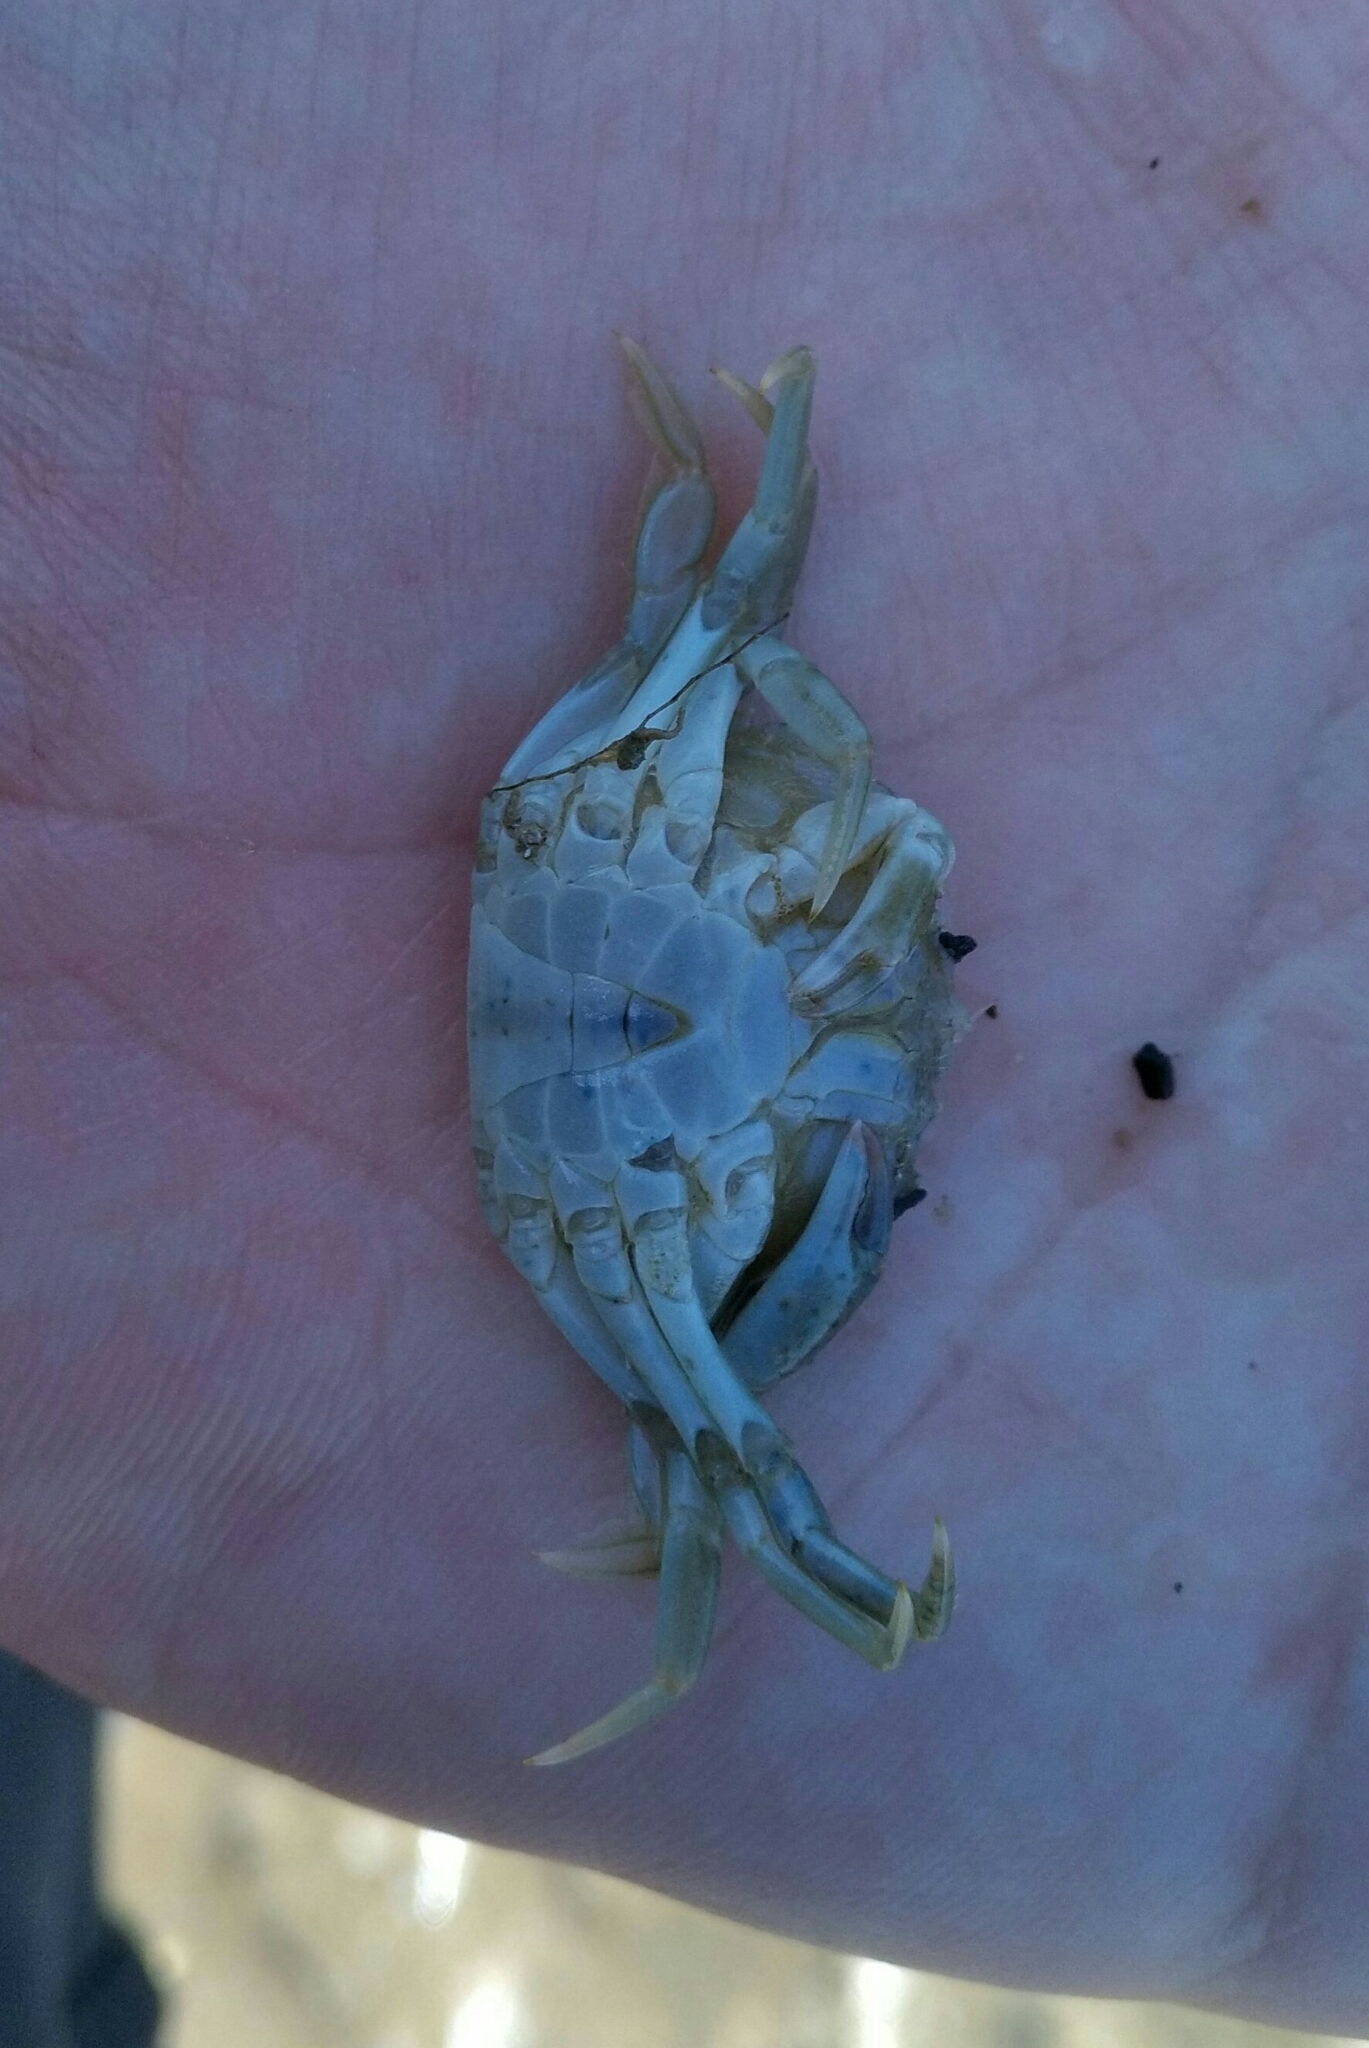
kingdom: Animalia
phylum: Arthropoda
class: Malacostraca
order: Decapoda
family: Carcinidae
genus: Carcinus
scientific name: Carcinus maenas
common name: European green crab
